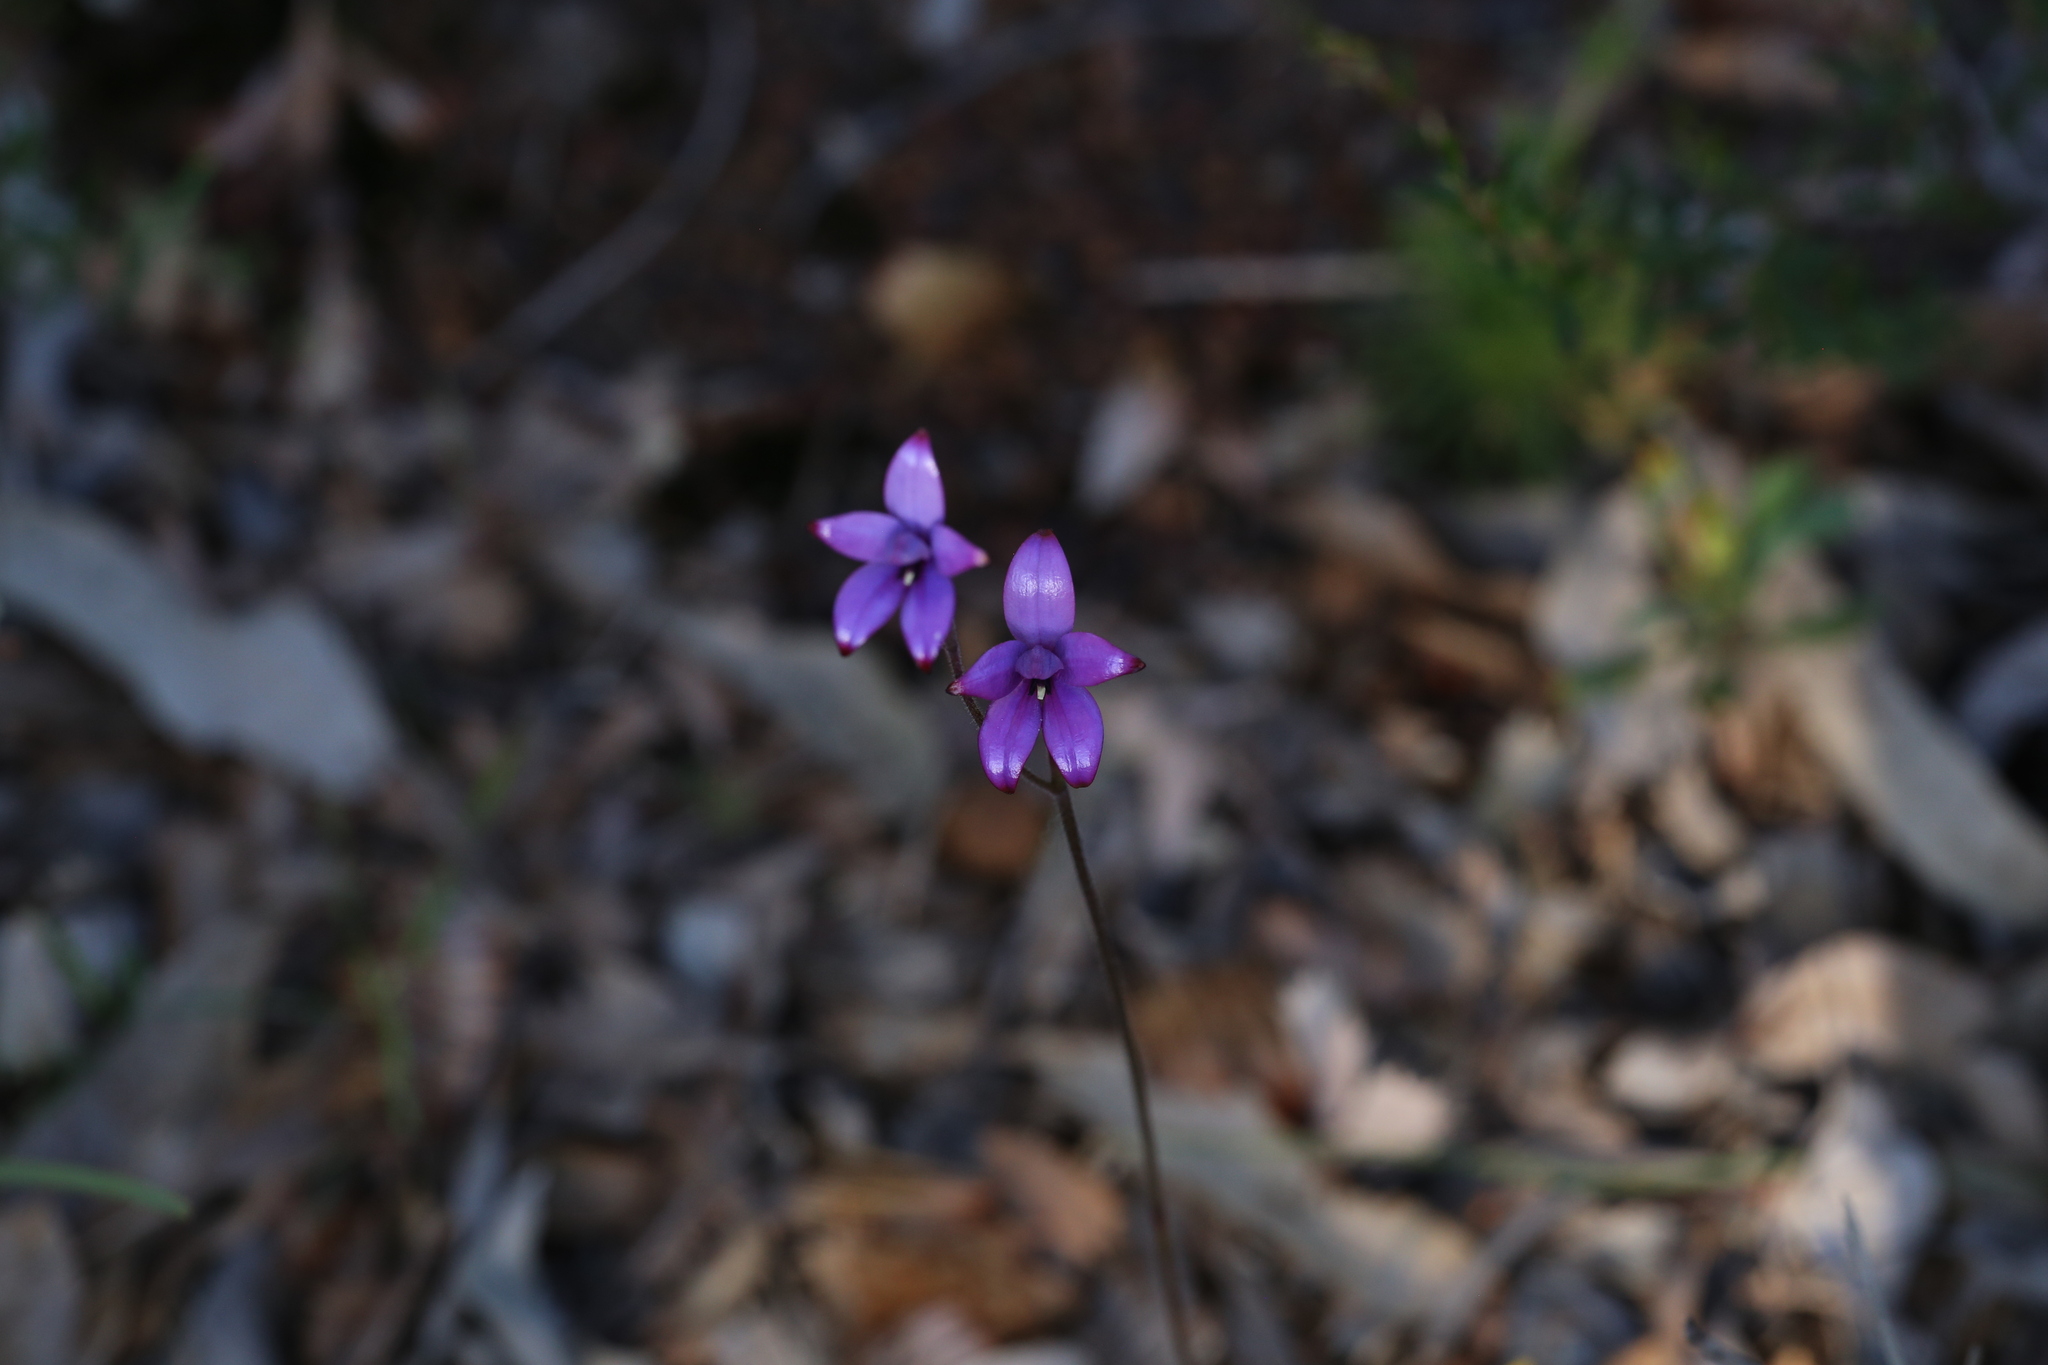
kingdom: Plantae
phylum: Tracheophyta
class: Liliopsida
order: Asparagales
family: Orchidaceae
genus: Caladenia
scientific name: Caladenia brunonis
